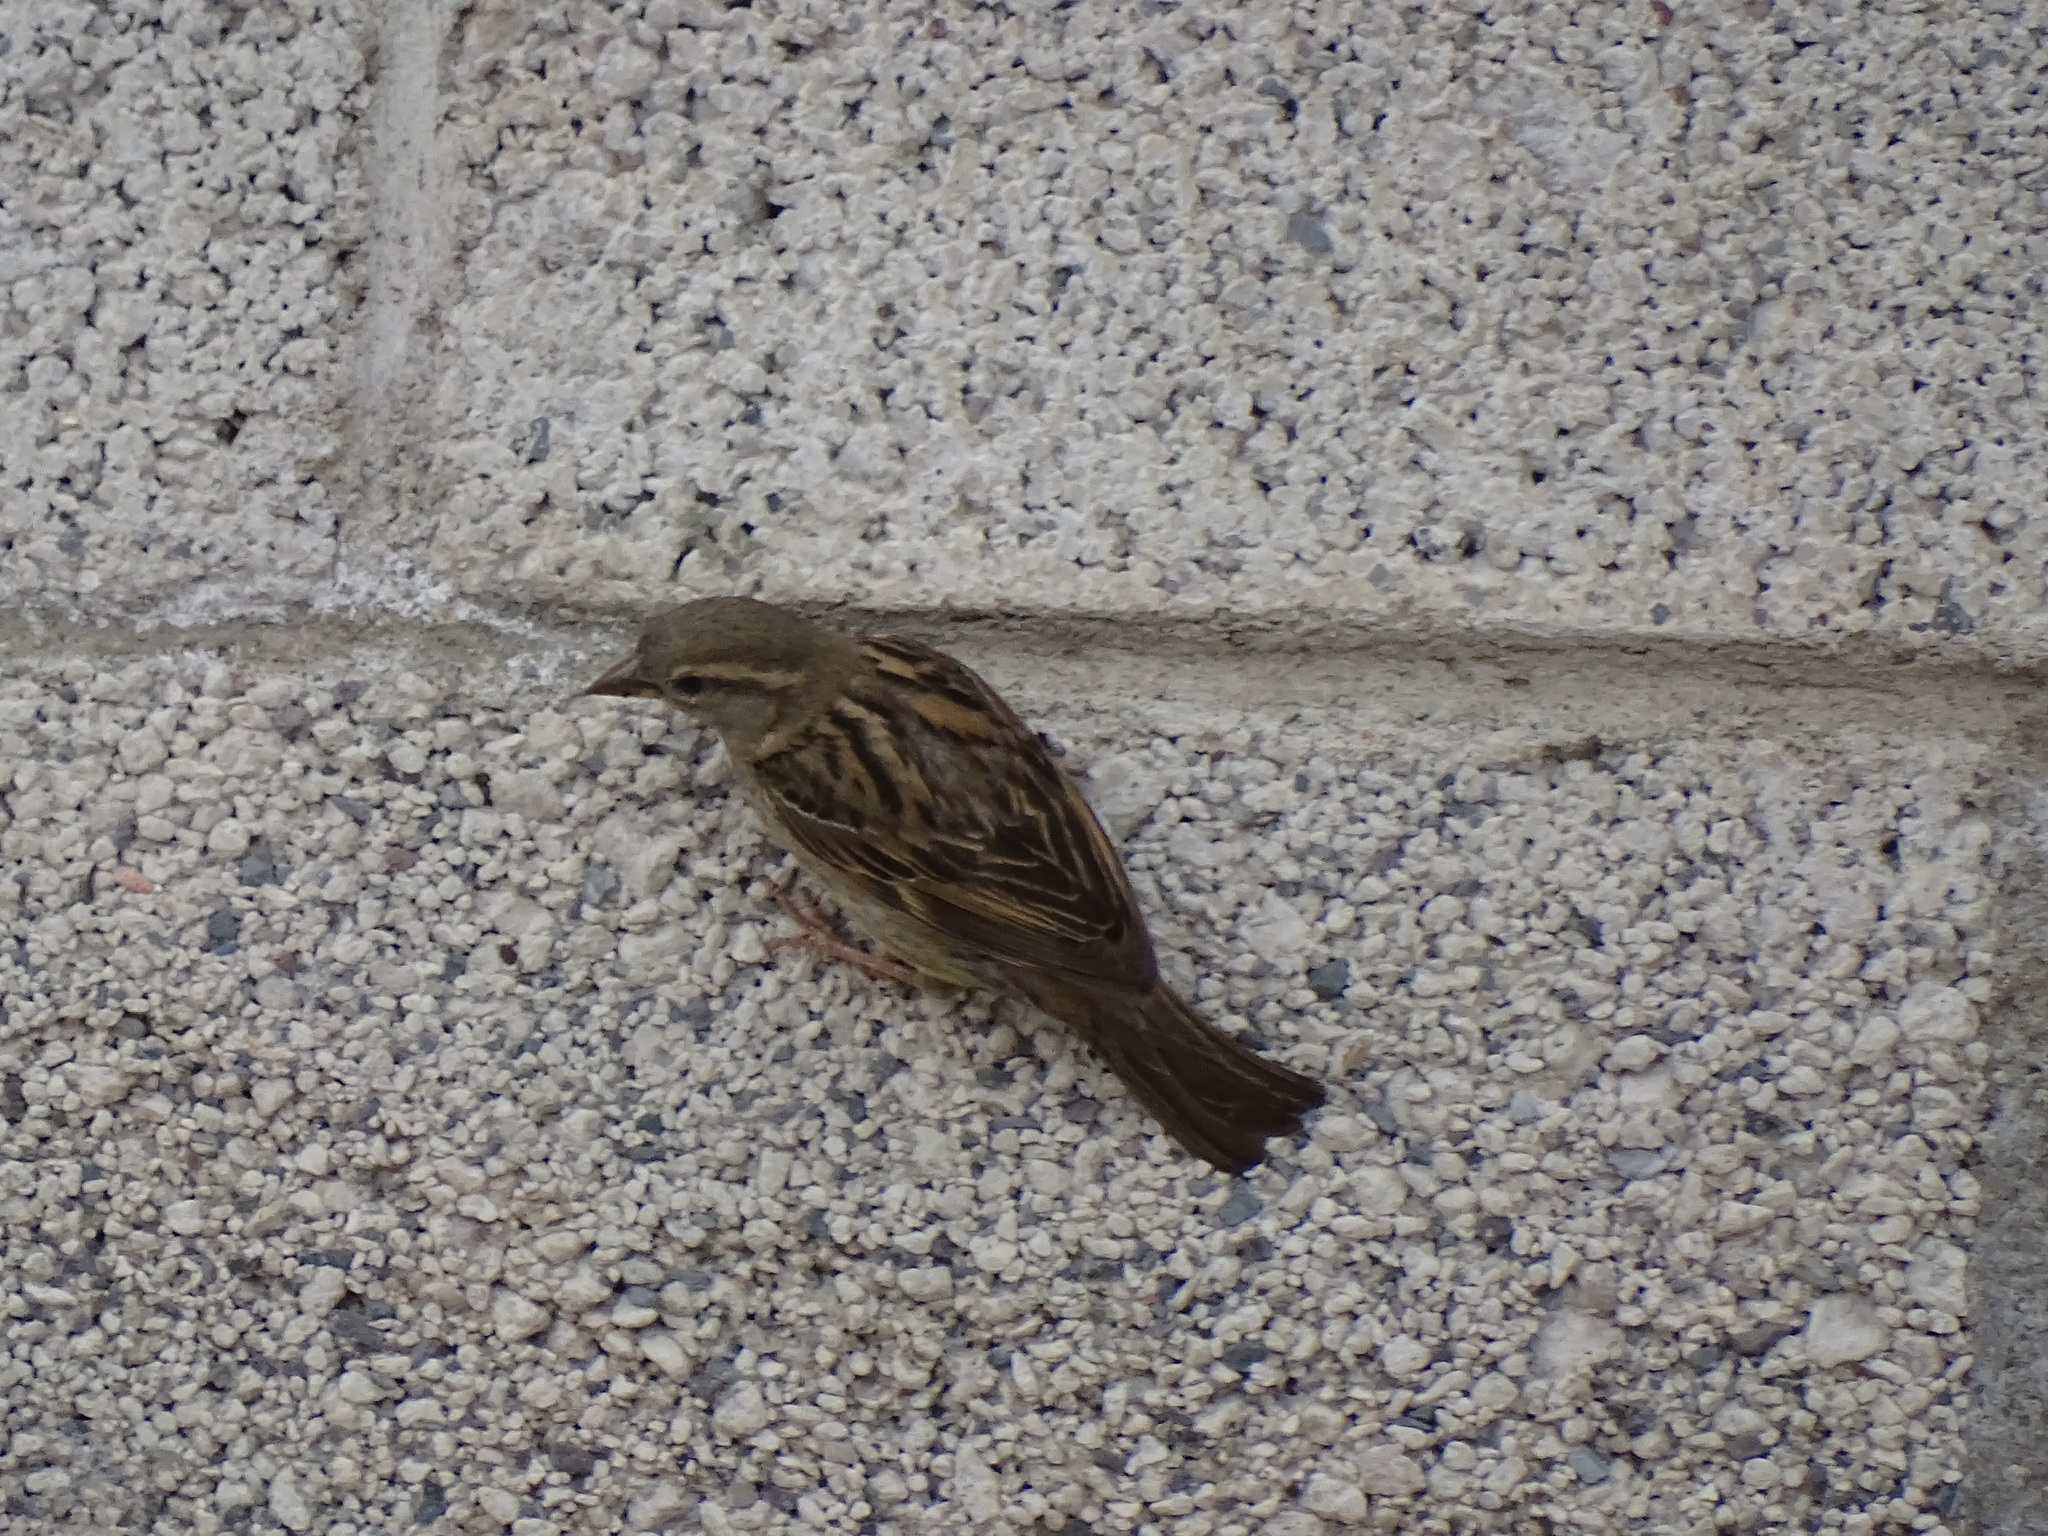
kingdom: Animalia
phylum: Chordata
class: Aves
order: Passeriformes
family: Passeridae
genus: Passer
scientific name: Passer domesticus
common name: House sparrow
